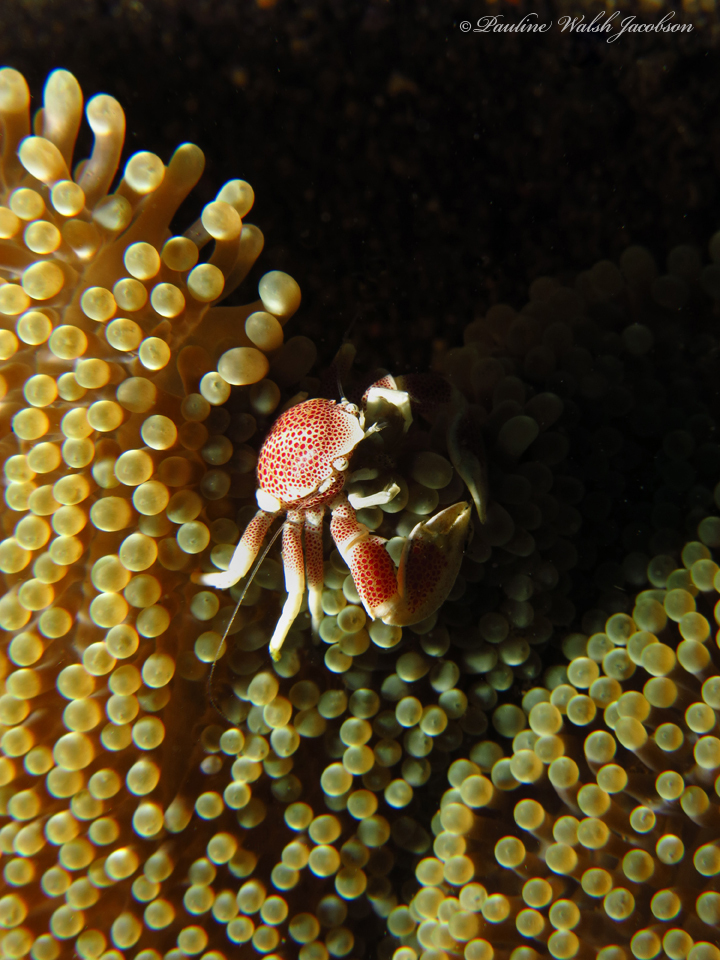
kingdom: Animalia
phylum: Arthropoda
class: Malacostraca
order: Decapoda
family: Porcellanidae
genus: Neopetrolisthes
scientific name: Neopetrolisthes maculatus
